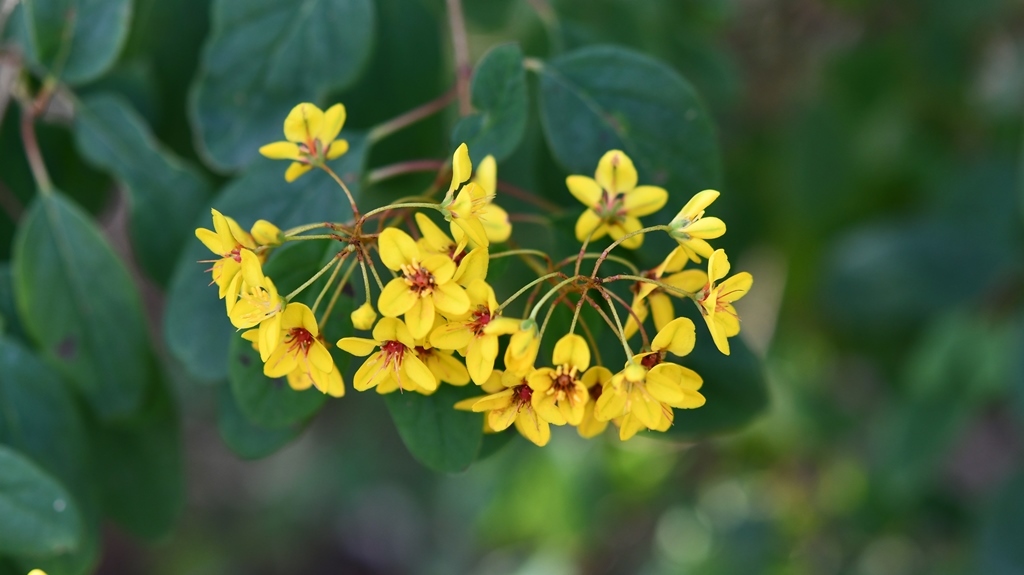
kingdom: Plantae
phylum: Tracheophyta
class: Magnoliopsida
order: Malpighiales
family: Malpighiaceae
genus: Galphimia
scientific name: Galphimia speciosa
